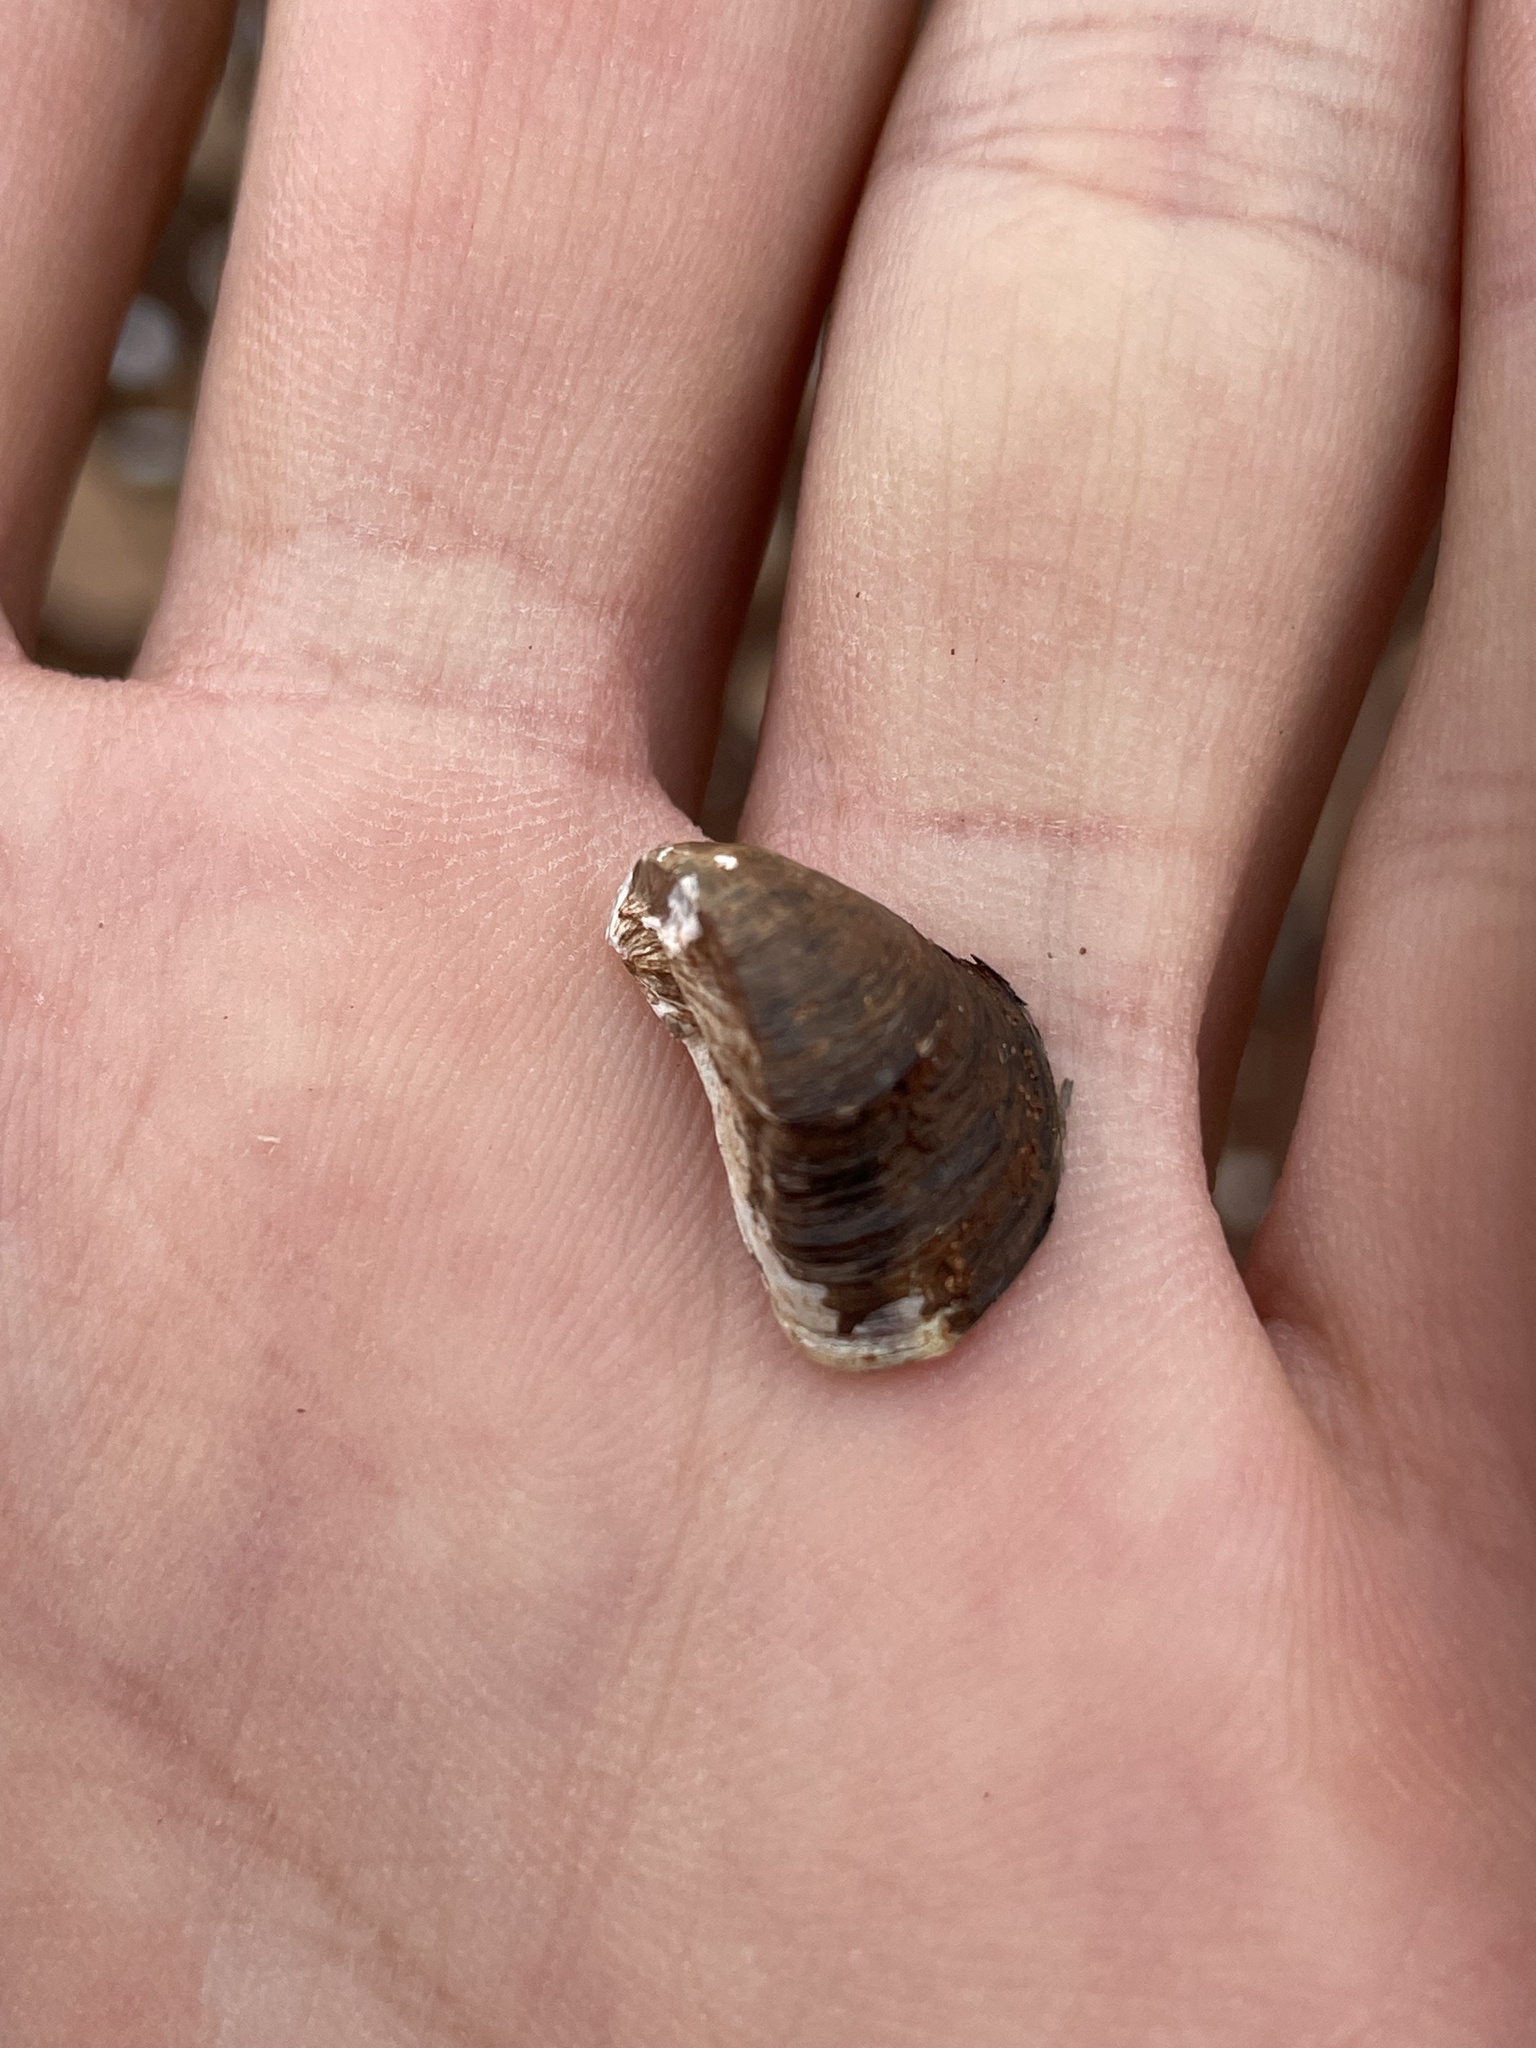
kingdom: Animalia
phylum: Mollusca
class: Bivalvia
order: Myida
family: Dreissenidae
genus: Dreissena
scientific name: Dreissena polymorpha
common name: Zebra mussel
